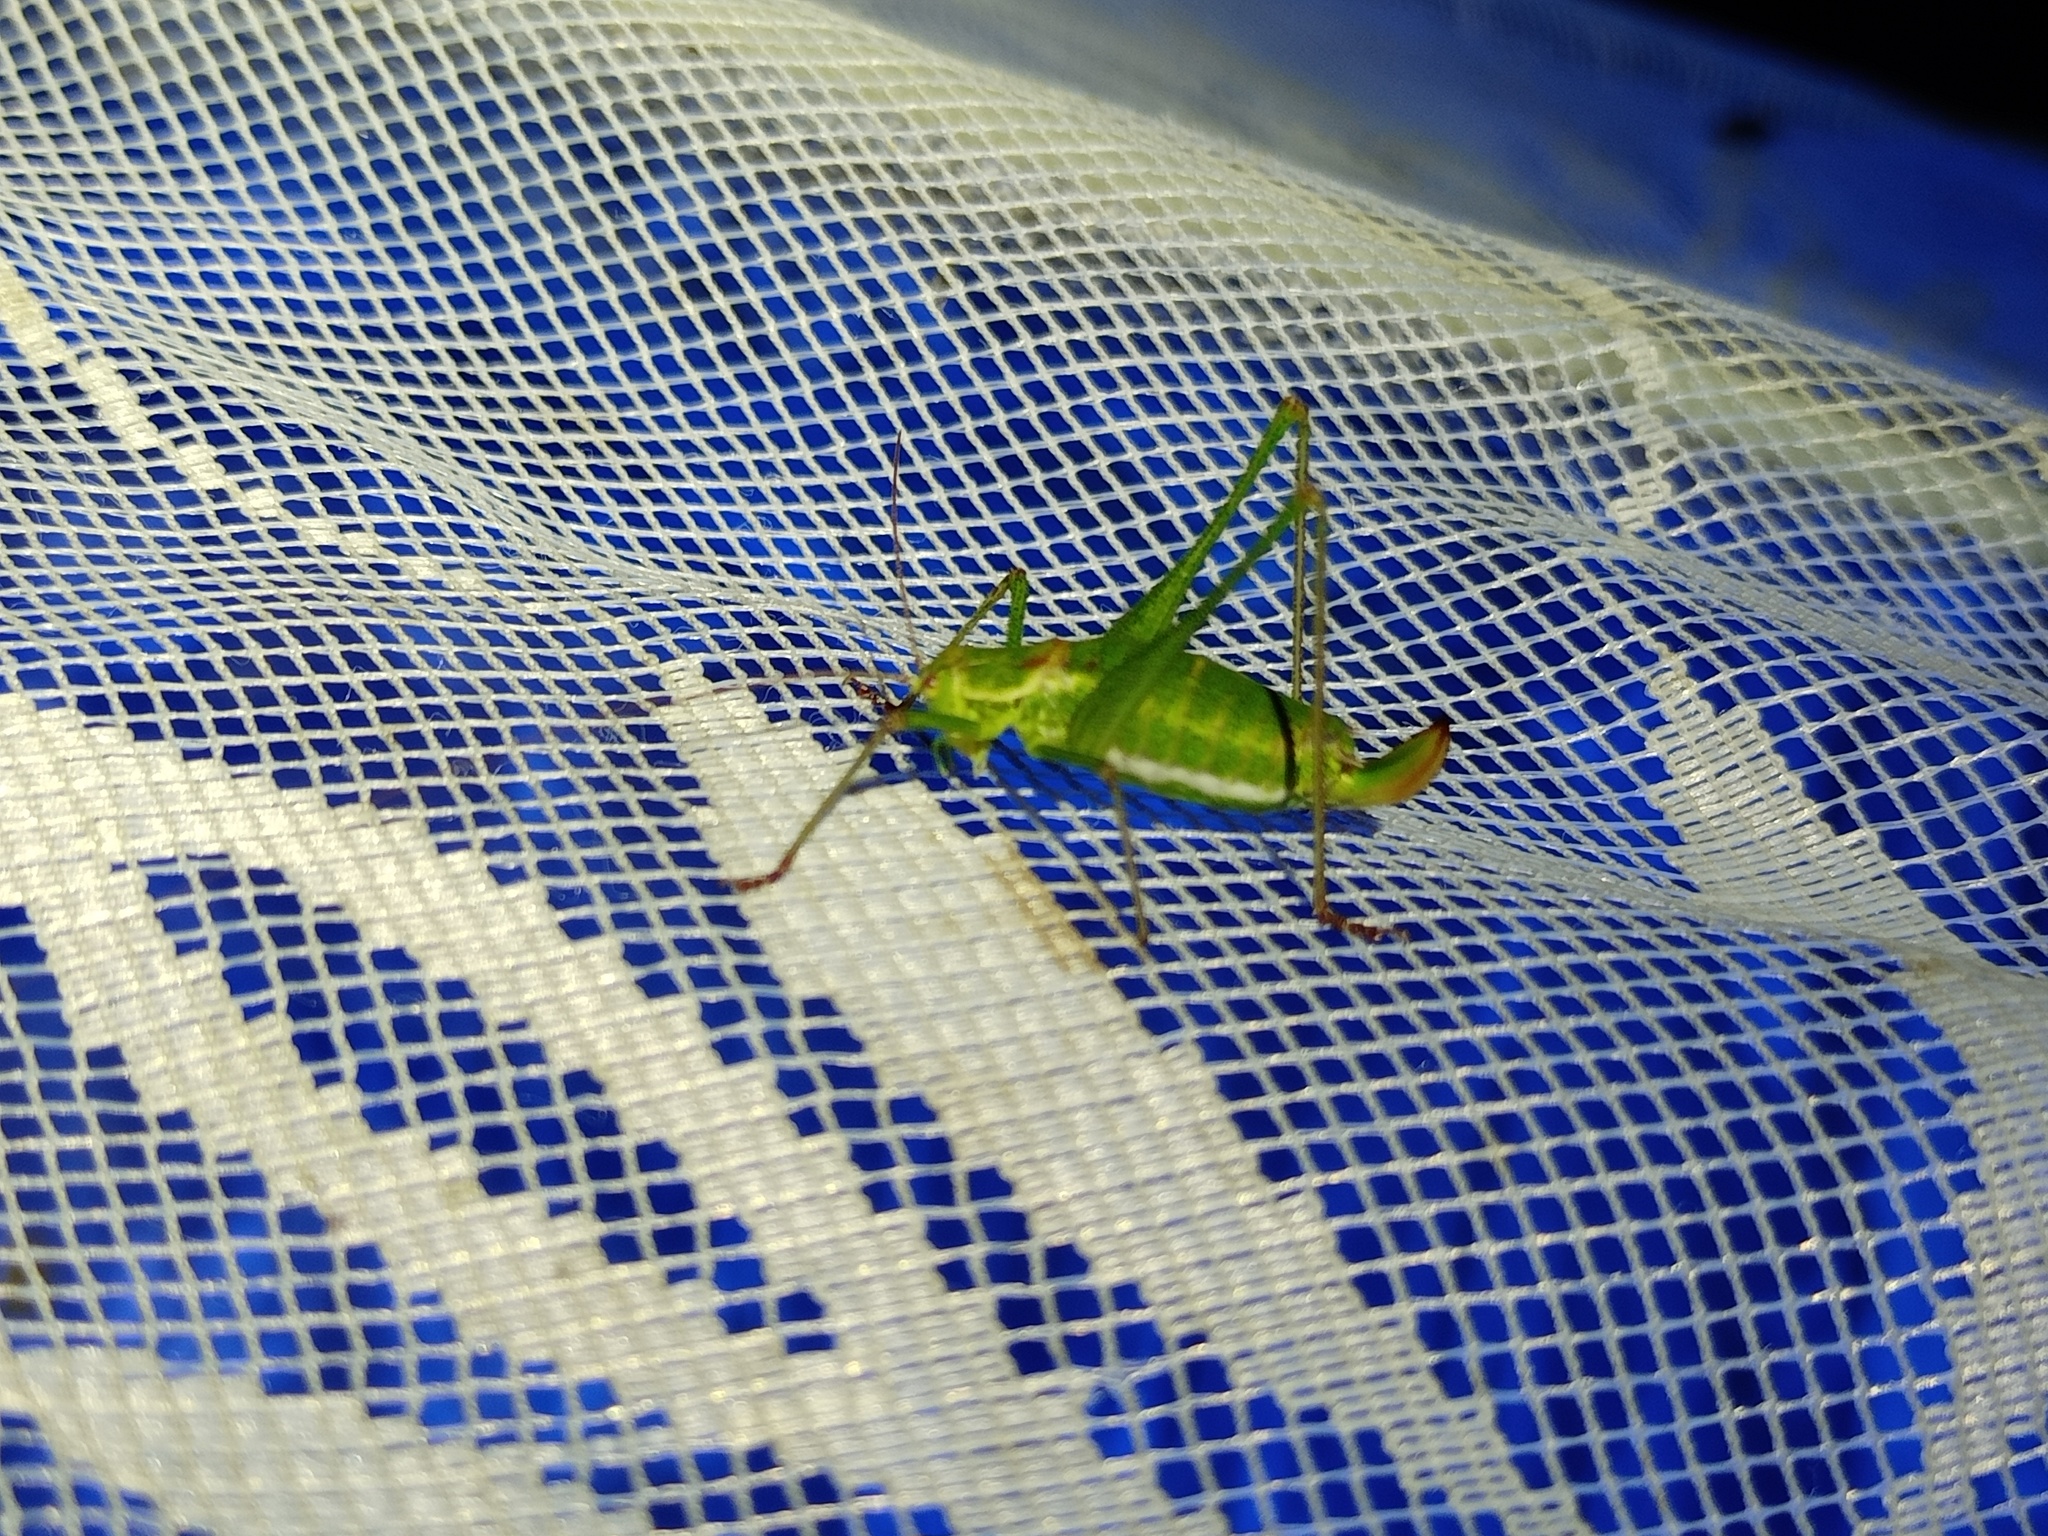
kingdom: Animalia
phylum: Arthropoda
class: Insecta
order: Orthoptera
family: Tettigoniidae
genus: Leptophyes
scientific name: Leptophyes albovittata
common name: Striped bush-cricket
